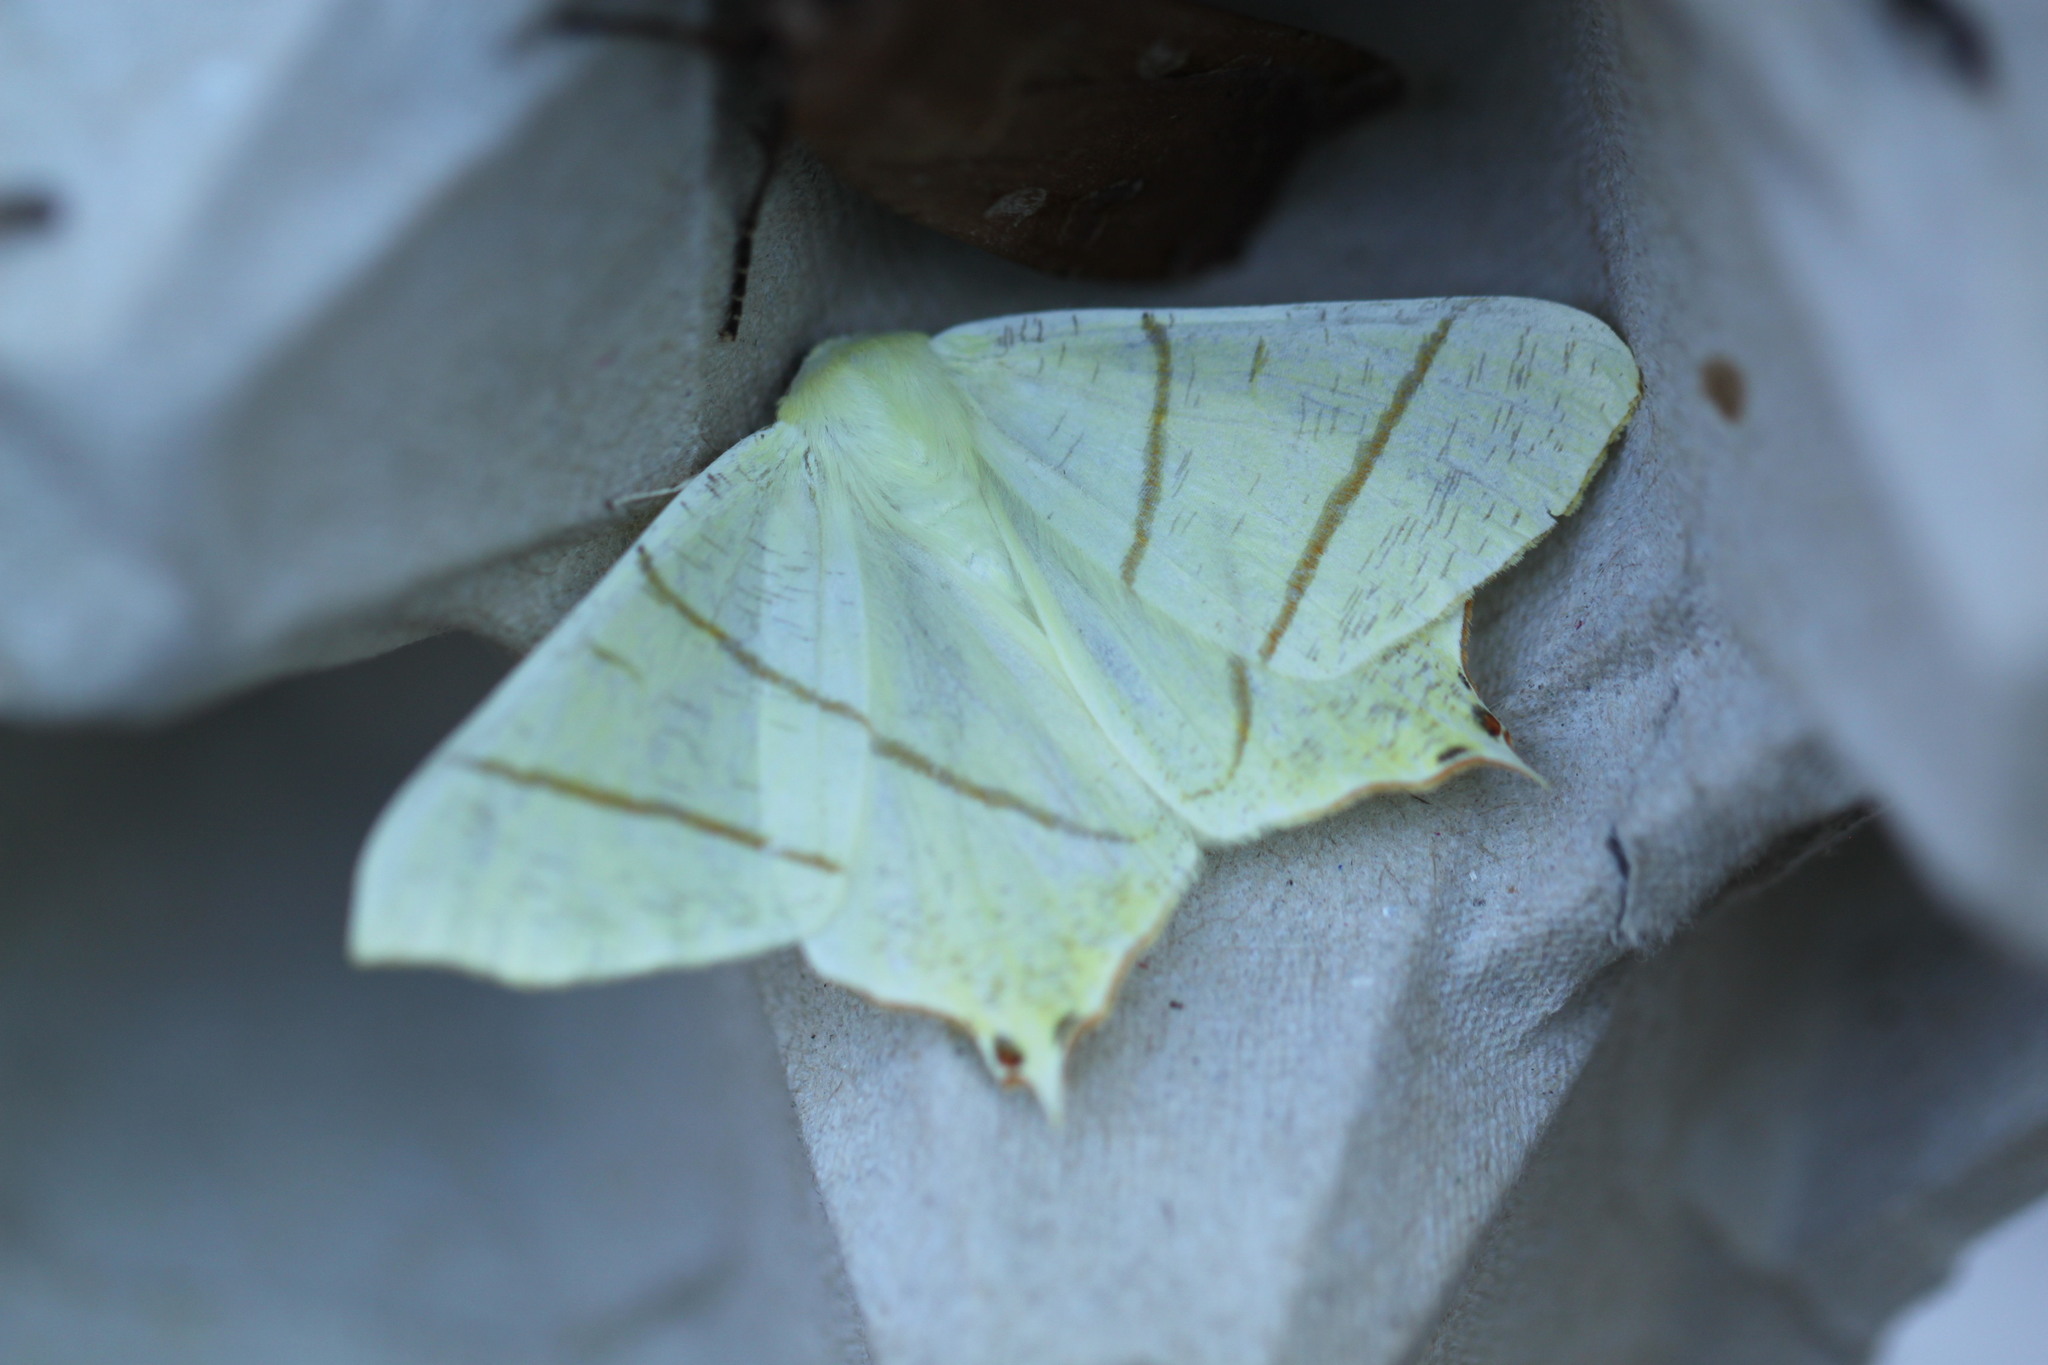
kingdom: Animalia
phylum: Arthropoda
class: Insecta
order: Lepidoptera
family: Geometridae
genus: Ourapteryx
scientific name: Ourapteryx sambucaria
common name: Swallow-tailed moth
